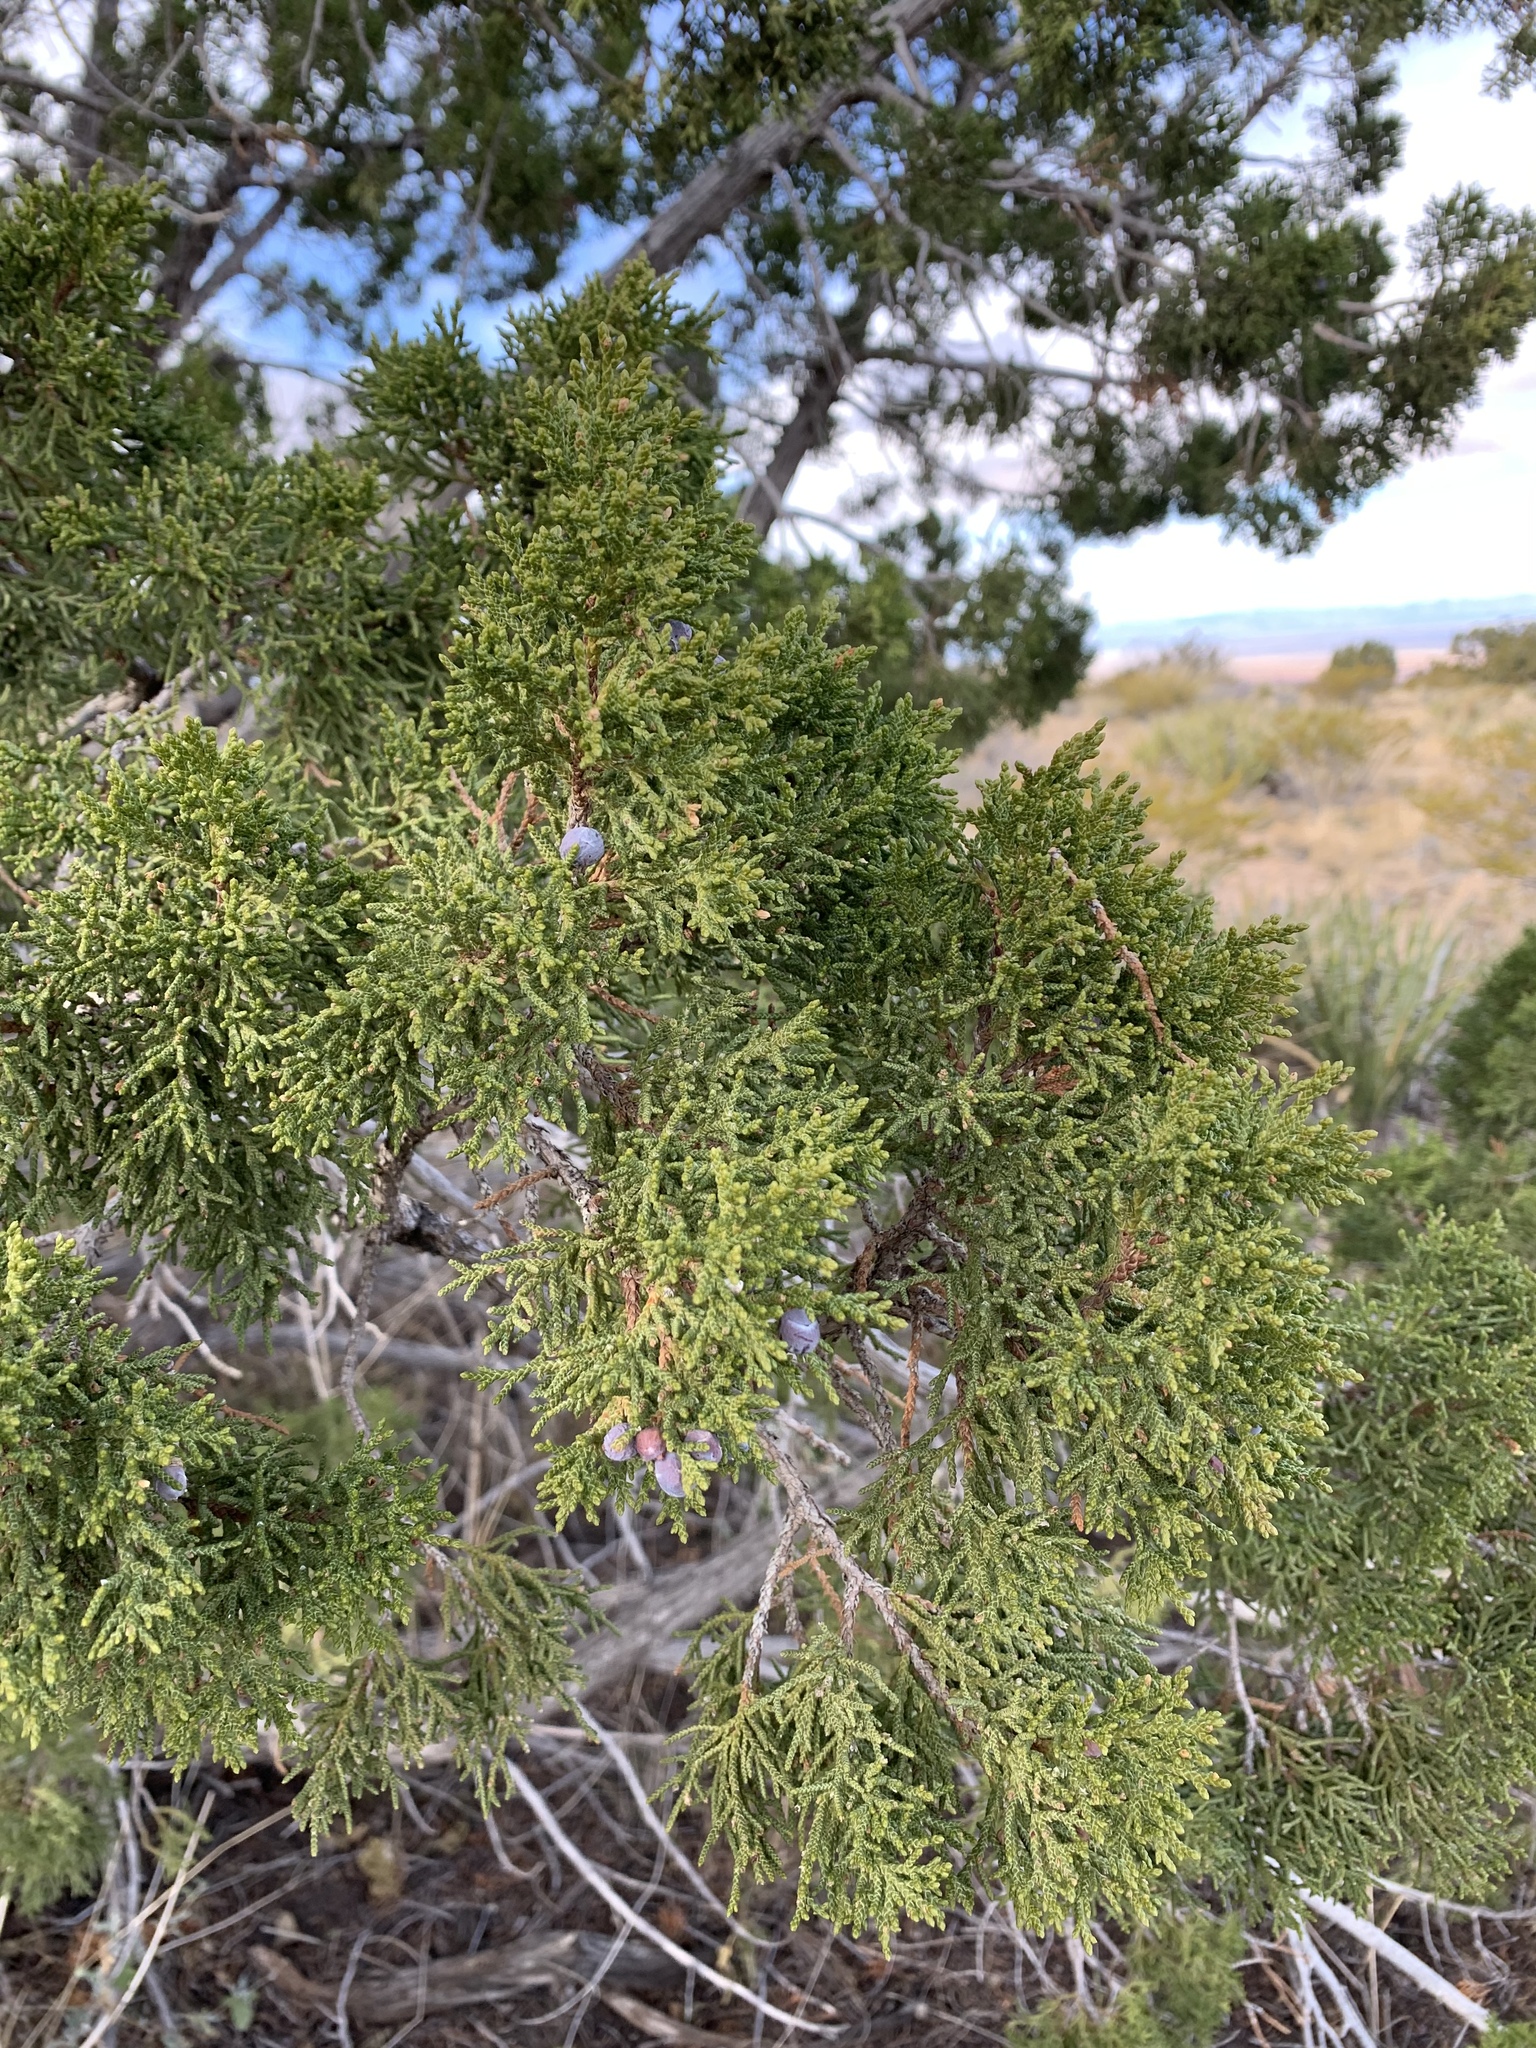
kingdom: Plantae
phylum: Tracheophyta
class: Pinopsida
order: Pinales
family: Cupressaceae
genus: Juniperus
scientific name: Juniperus monosperma
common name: One-seed juniper
